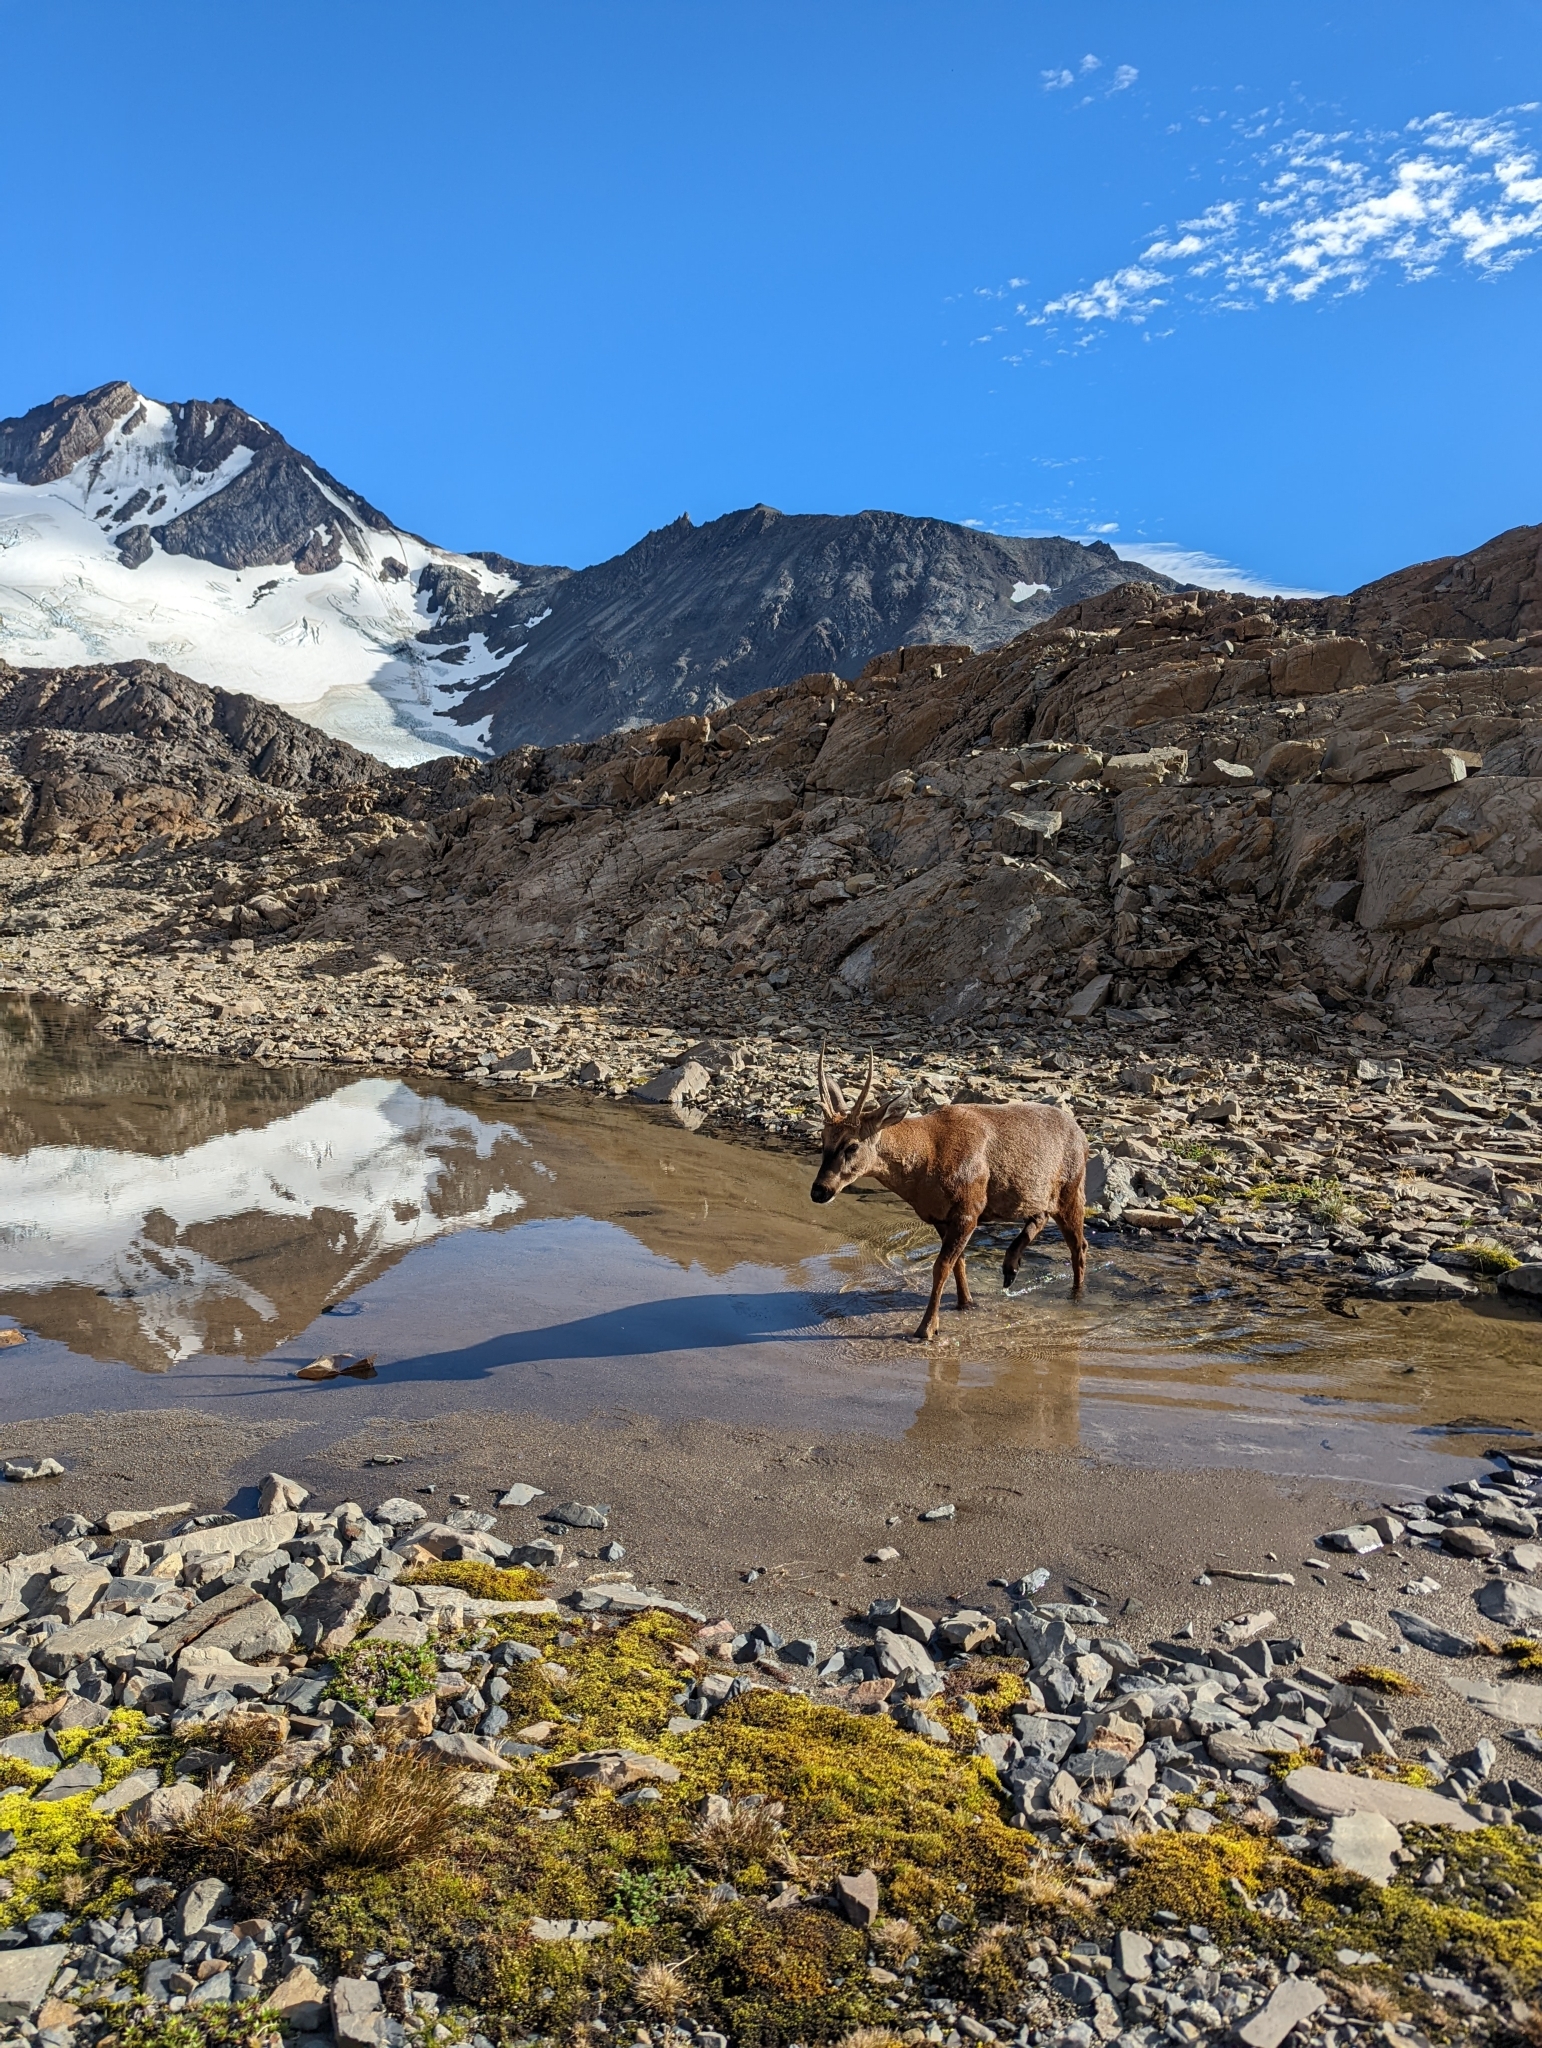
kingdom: Animalia
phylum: Chordata
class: Mammalia
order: Artiodactyla
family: Cervidae
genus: Hippocamelus
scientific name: Hippocamelus bisulcus
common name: South andean huemul
